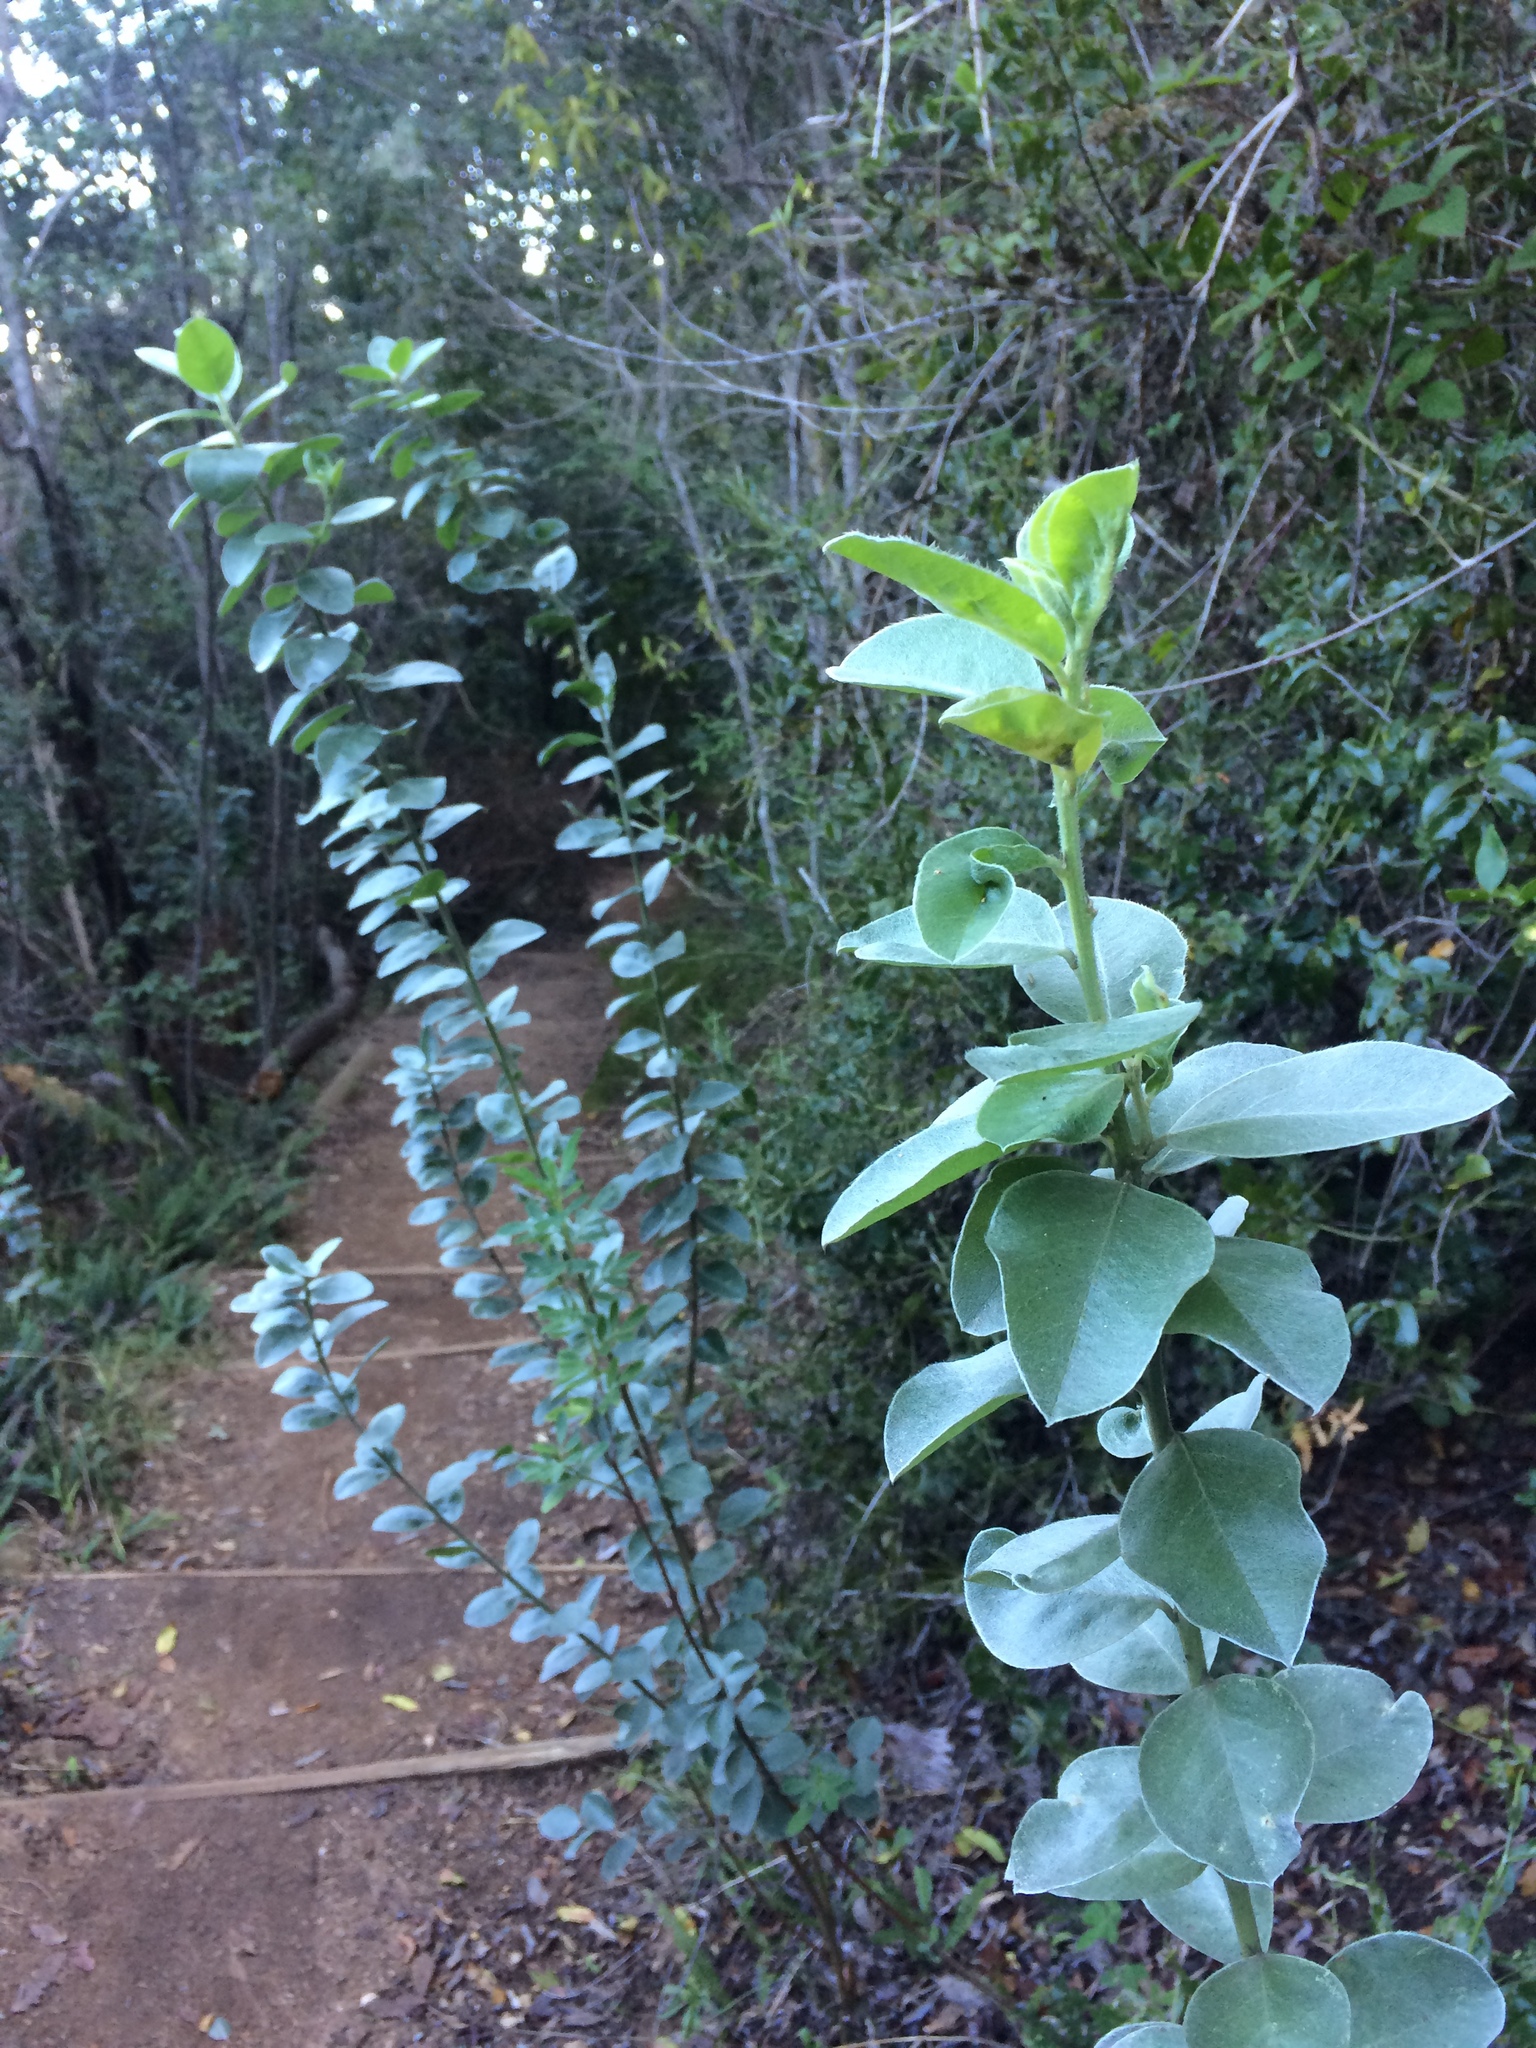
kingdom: Plantae
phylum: Tracheophyta
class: Magnoliopsida
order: Fabales
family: Fabaceae
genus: Podalyria
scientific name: Podalyria calyptrata
